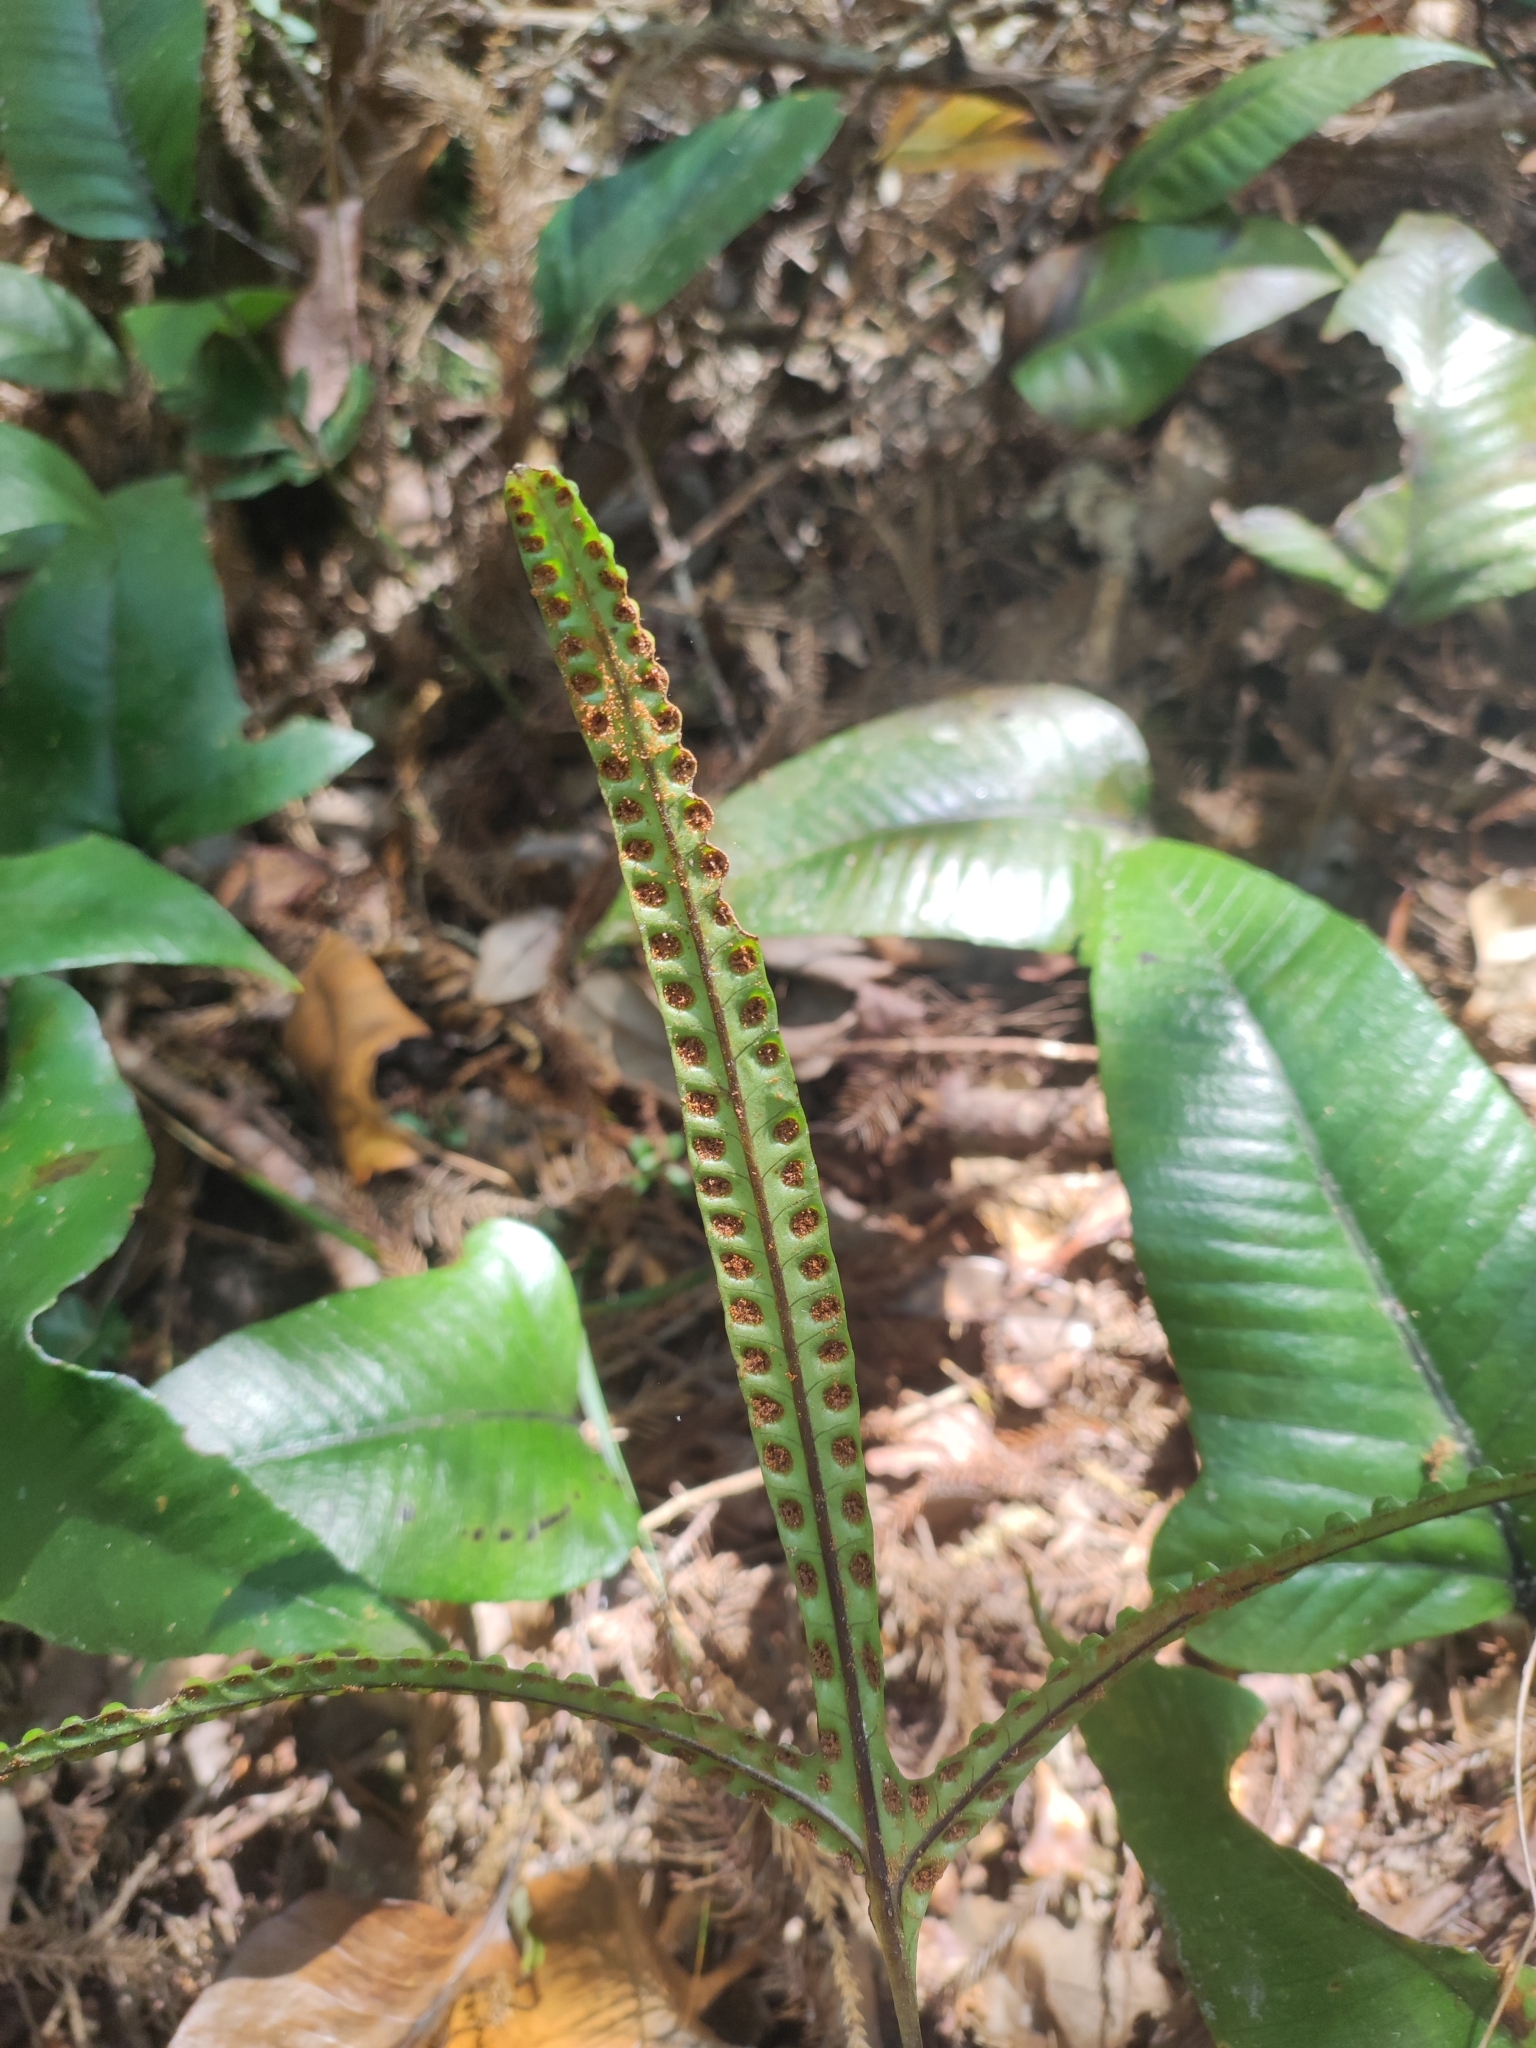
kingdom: Plantae
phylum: Tracheophyta
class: Polypodiopsida
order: Polypodiales
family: Polypodiaceae
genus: Selliguea
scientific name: Selliguea triloba
